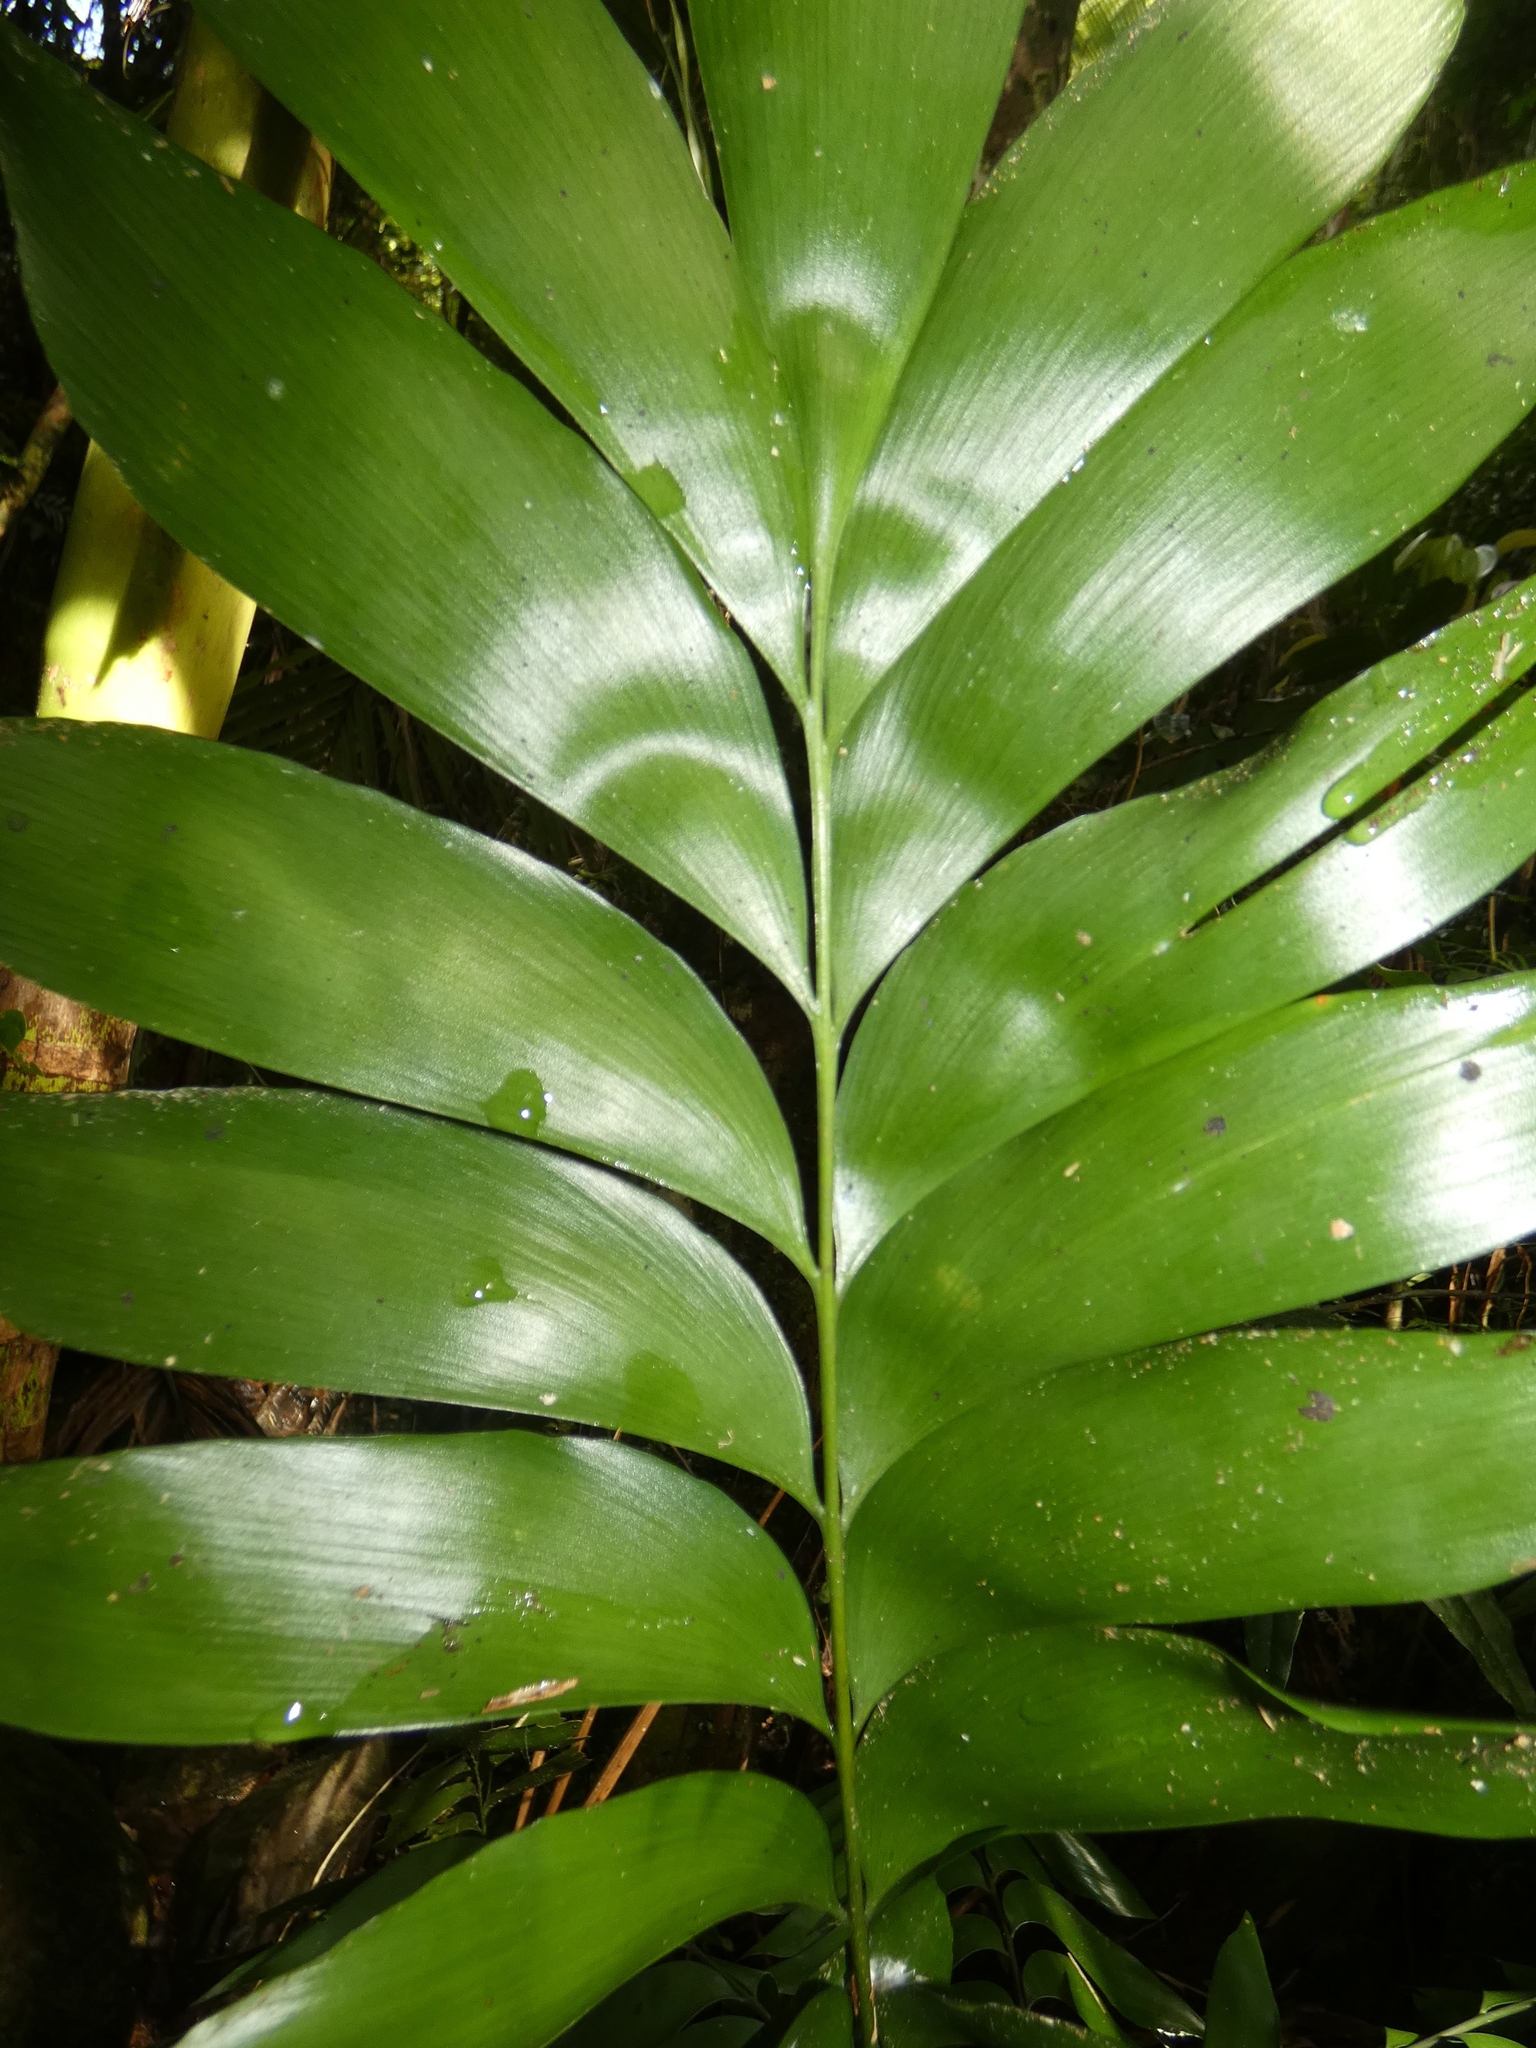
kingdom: Plantae
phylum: Tracheophyta
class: Cycadopsida
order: Cycadales
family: Zamiaceae
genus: Bowenia
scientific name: Bowenia spectabilis
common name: Zamia-fern
